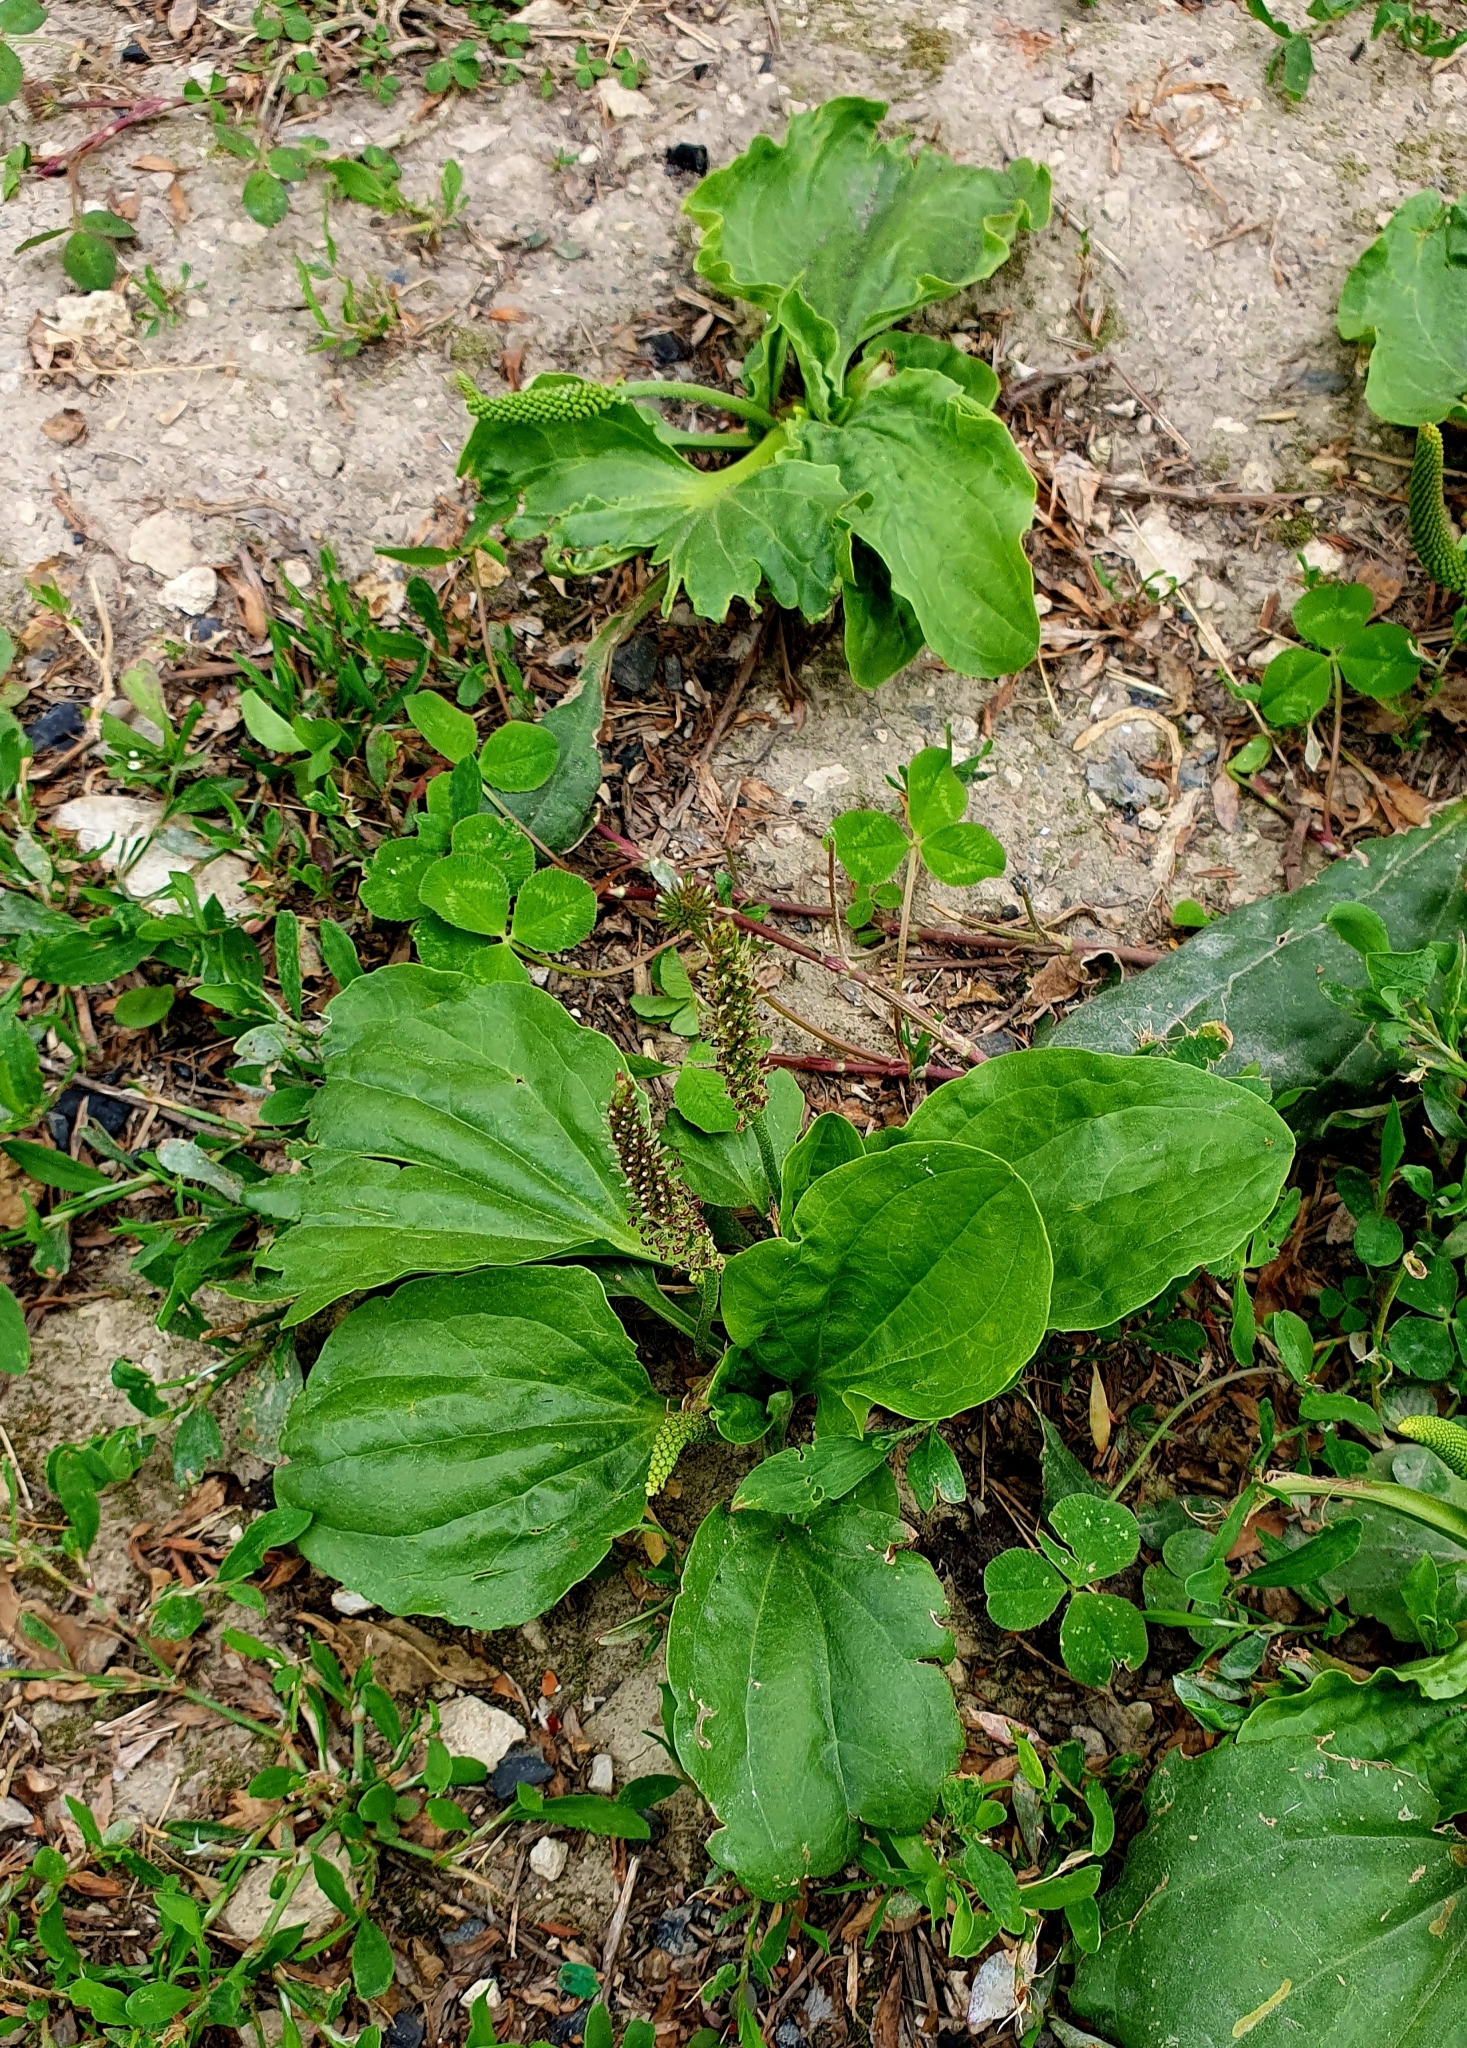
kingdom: Plantae
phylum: Tracheophyta
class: Magnoliopsida
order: Lamiales
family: Plantaginaceae
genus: Plantago
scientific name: Plantago major
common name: Common plantain
